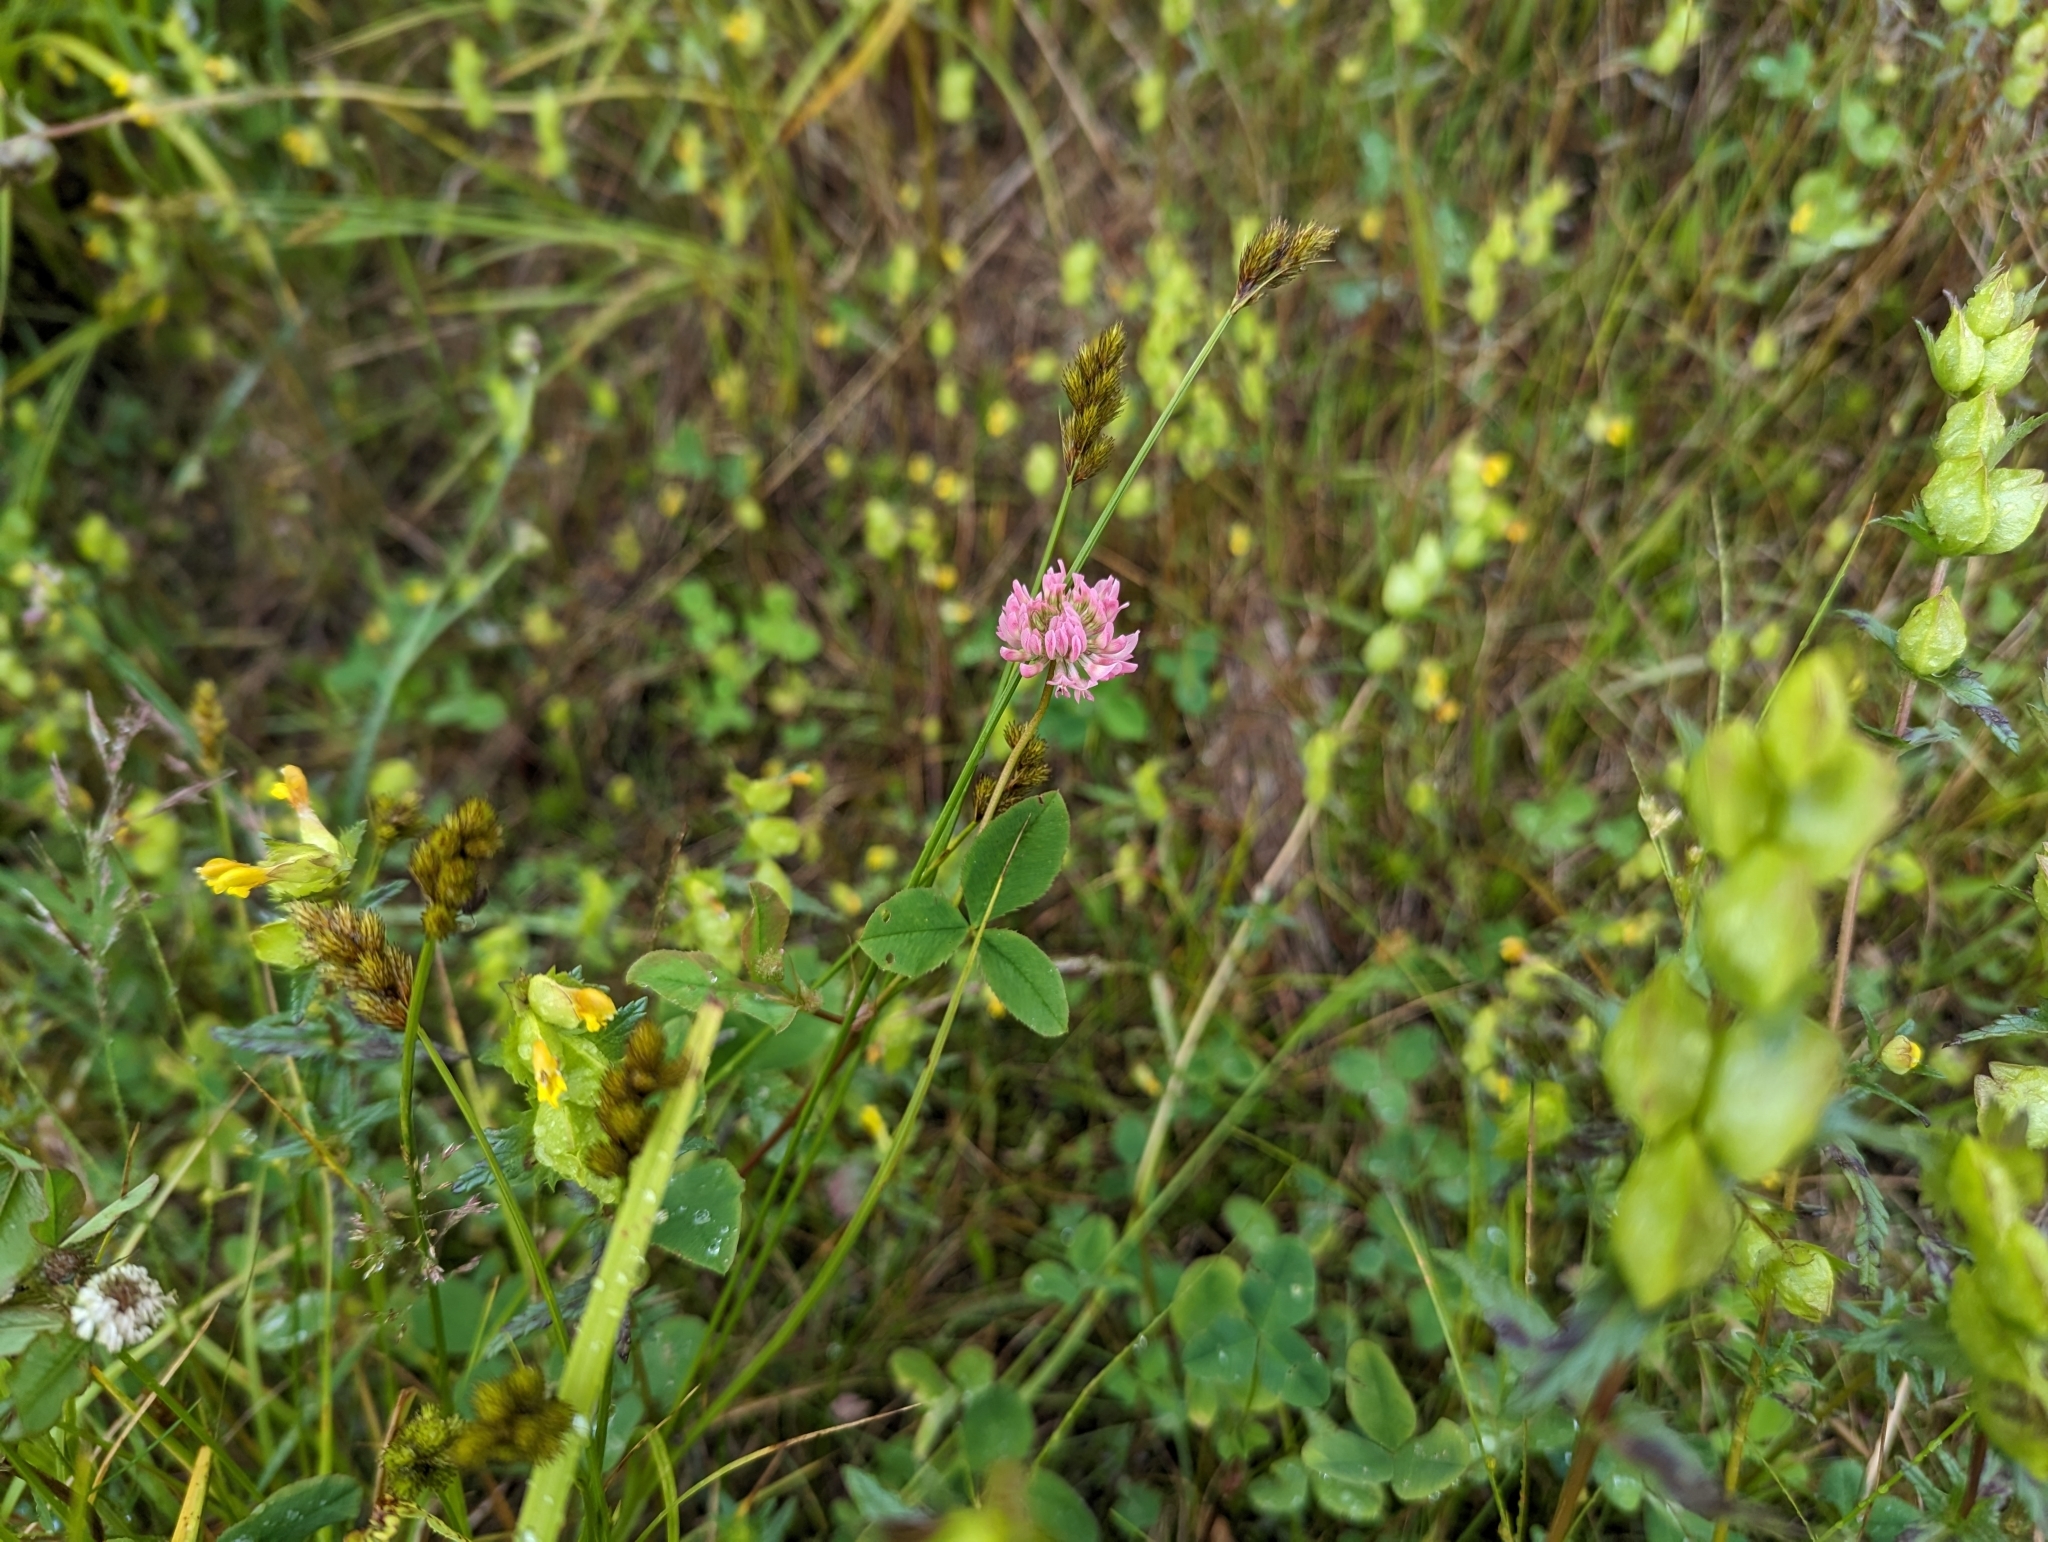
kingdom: Plantae
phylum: Tracheophyta
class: Magnoliopsida
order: Fabales
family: Fabaceae
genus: Trifolium
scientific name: Trifolium hybridum
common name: Alsike clover
